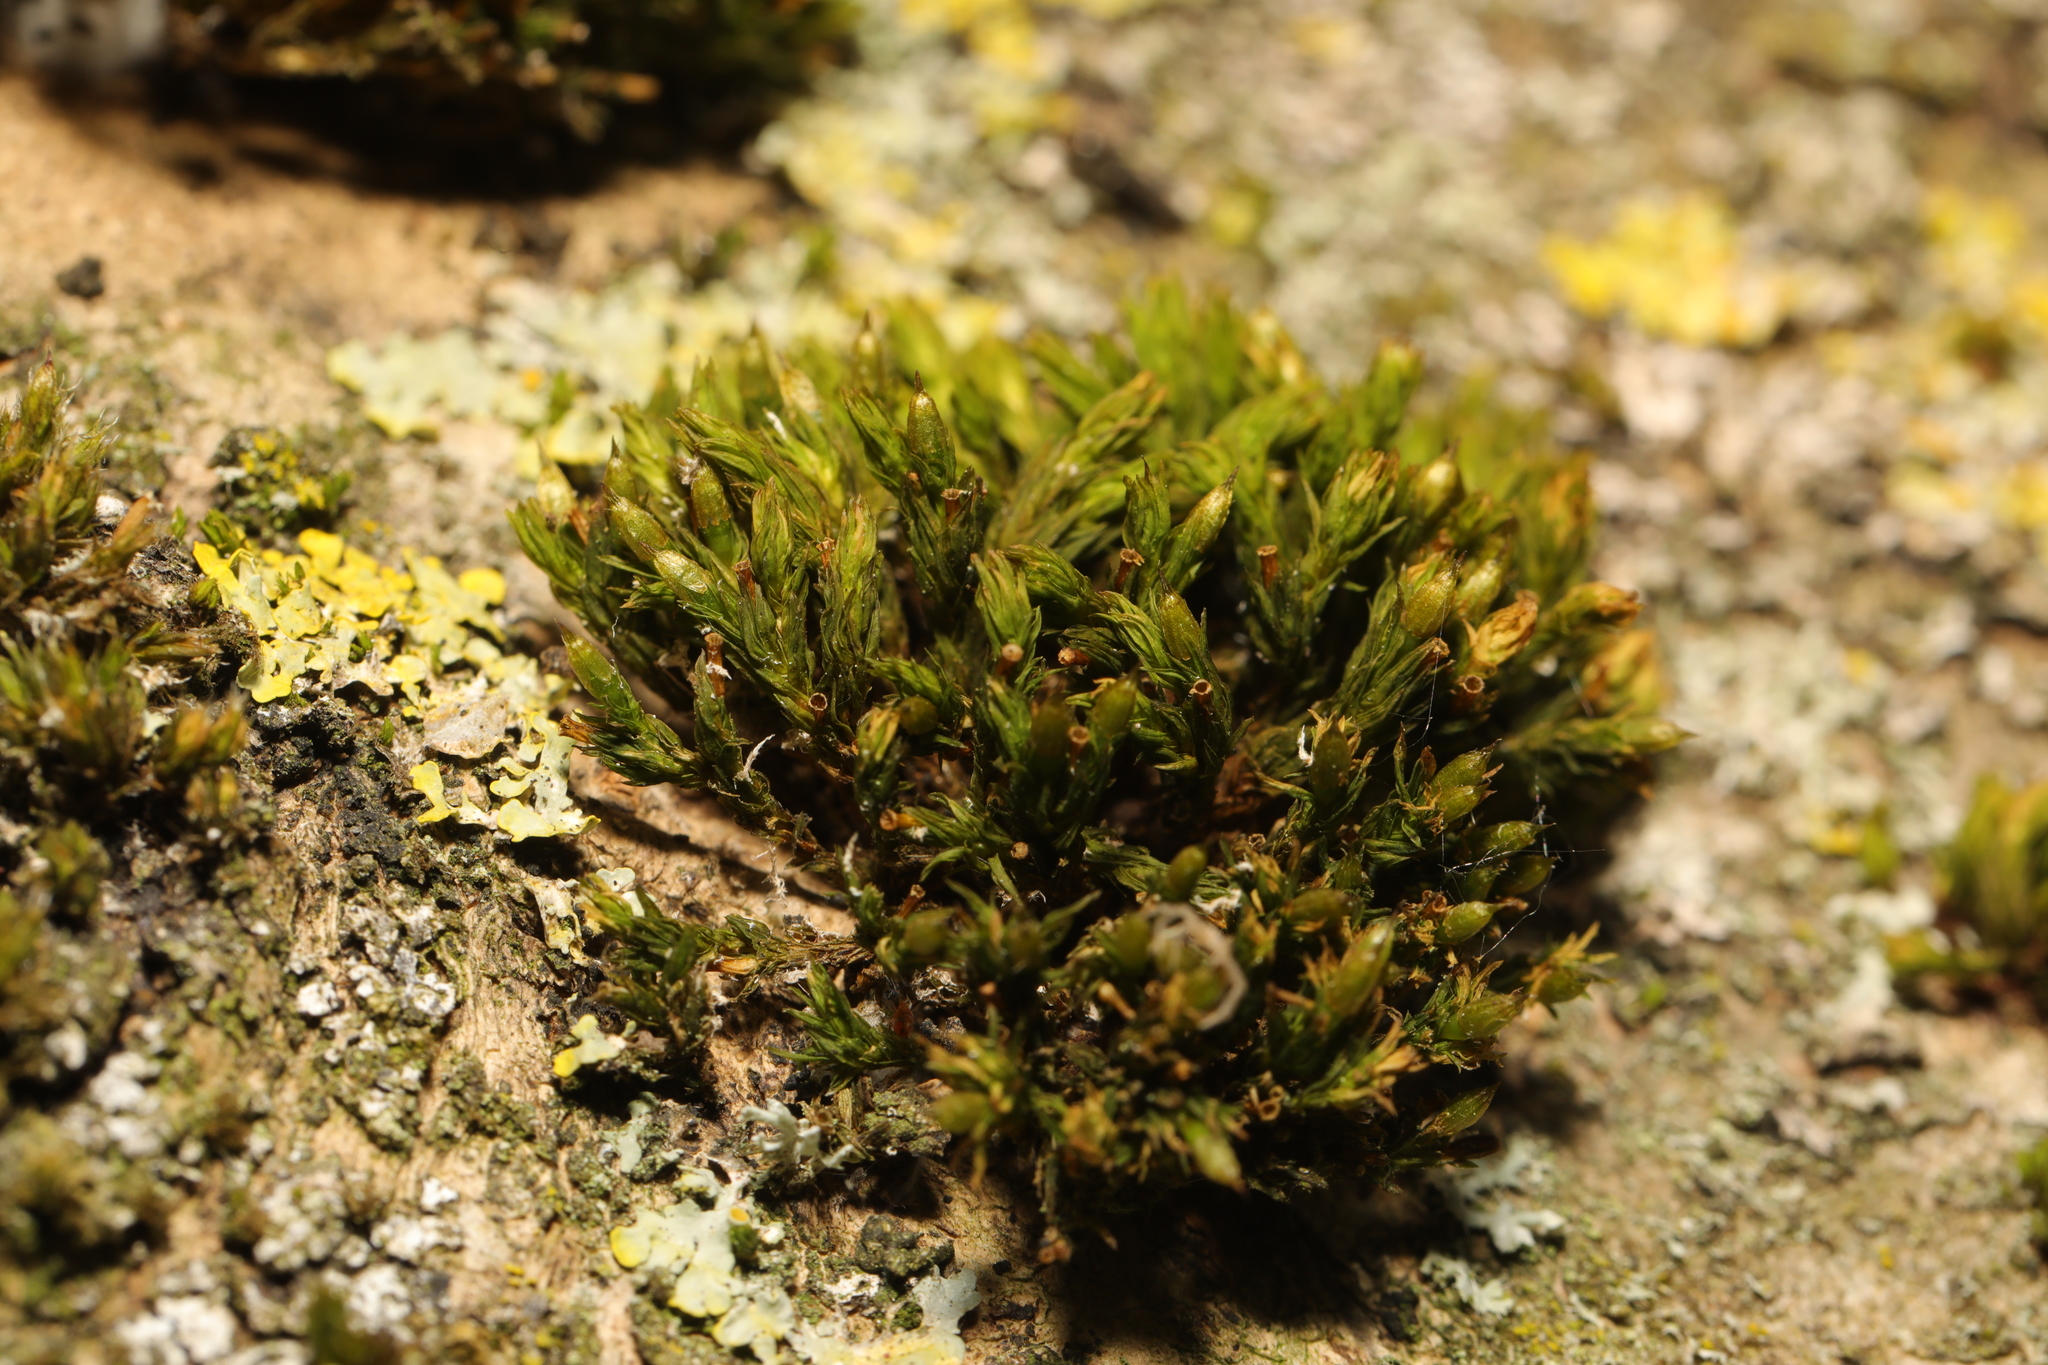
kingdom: Plantae
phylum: Bryophyta
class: Bryopsida
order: Orthotrichales
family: Orthotrichaceae
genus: Lewinskya
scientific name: Lewinskya affinis
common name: Wood bristle-moss
